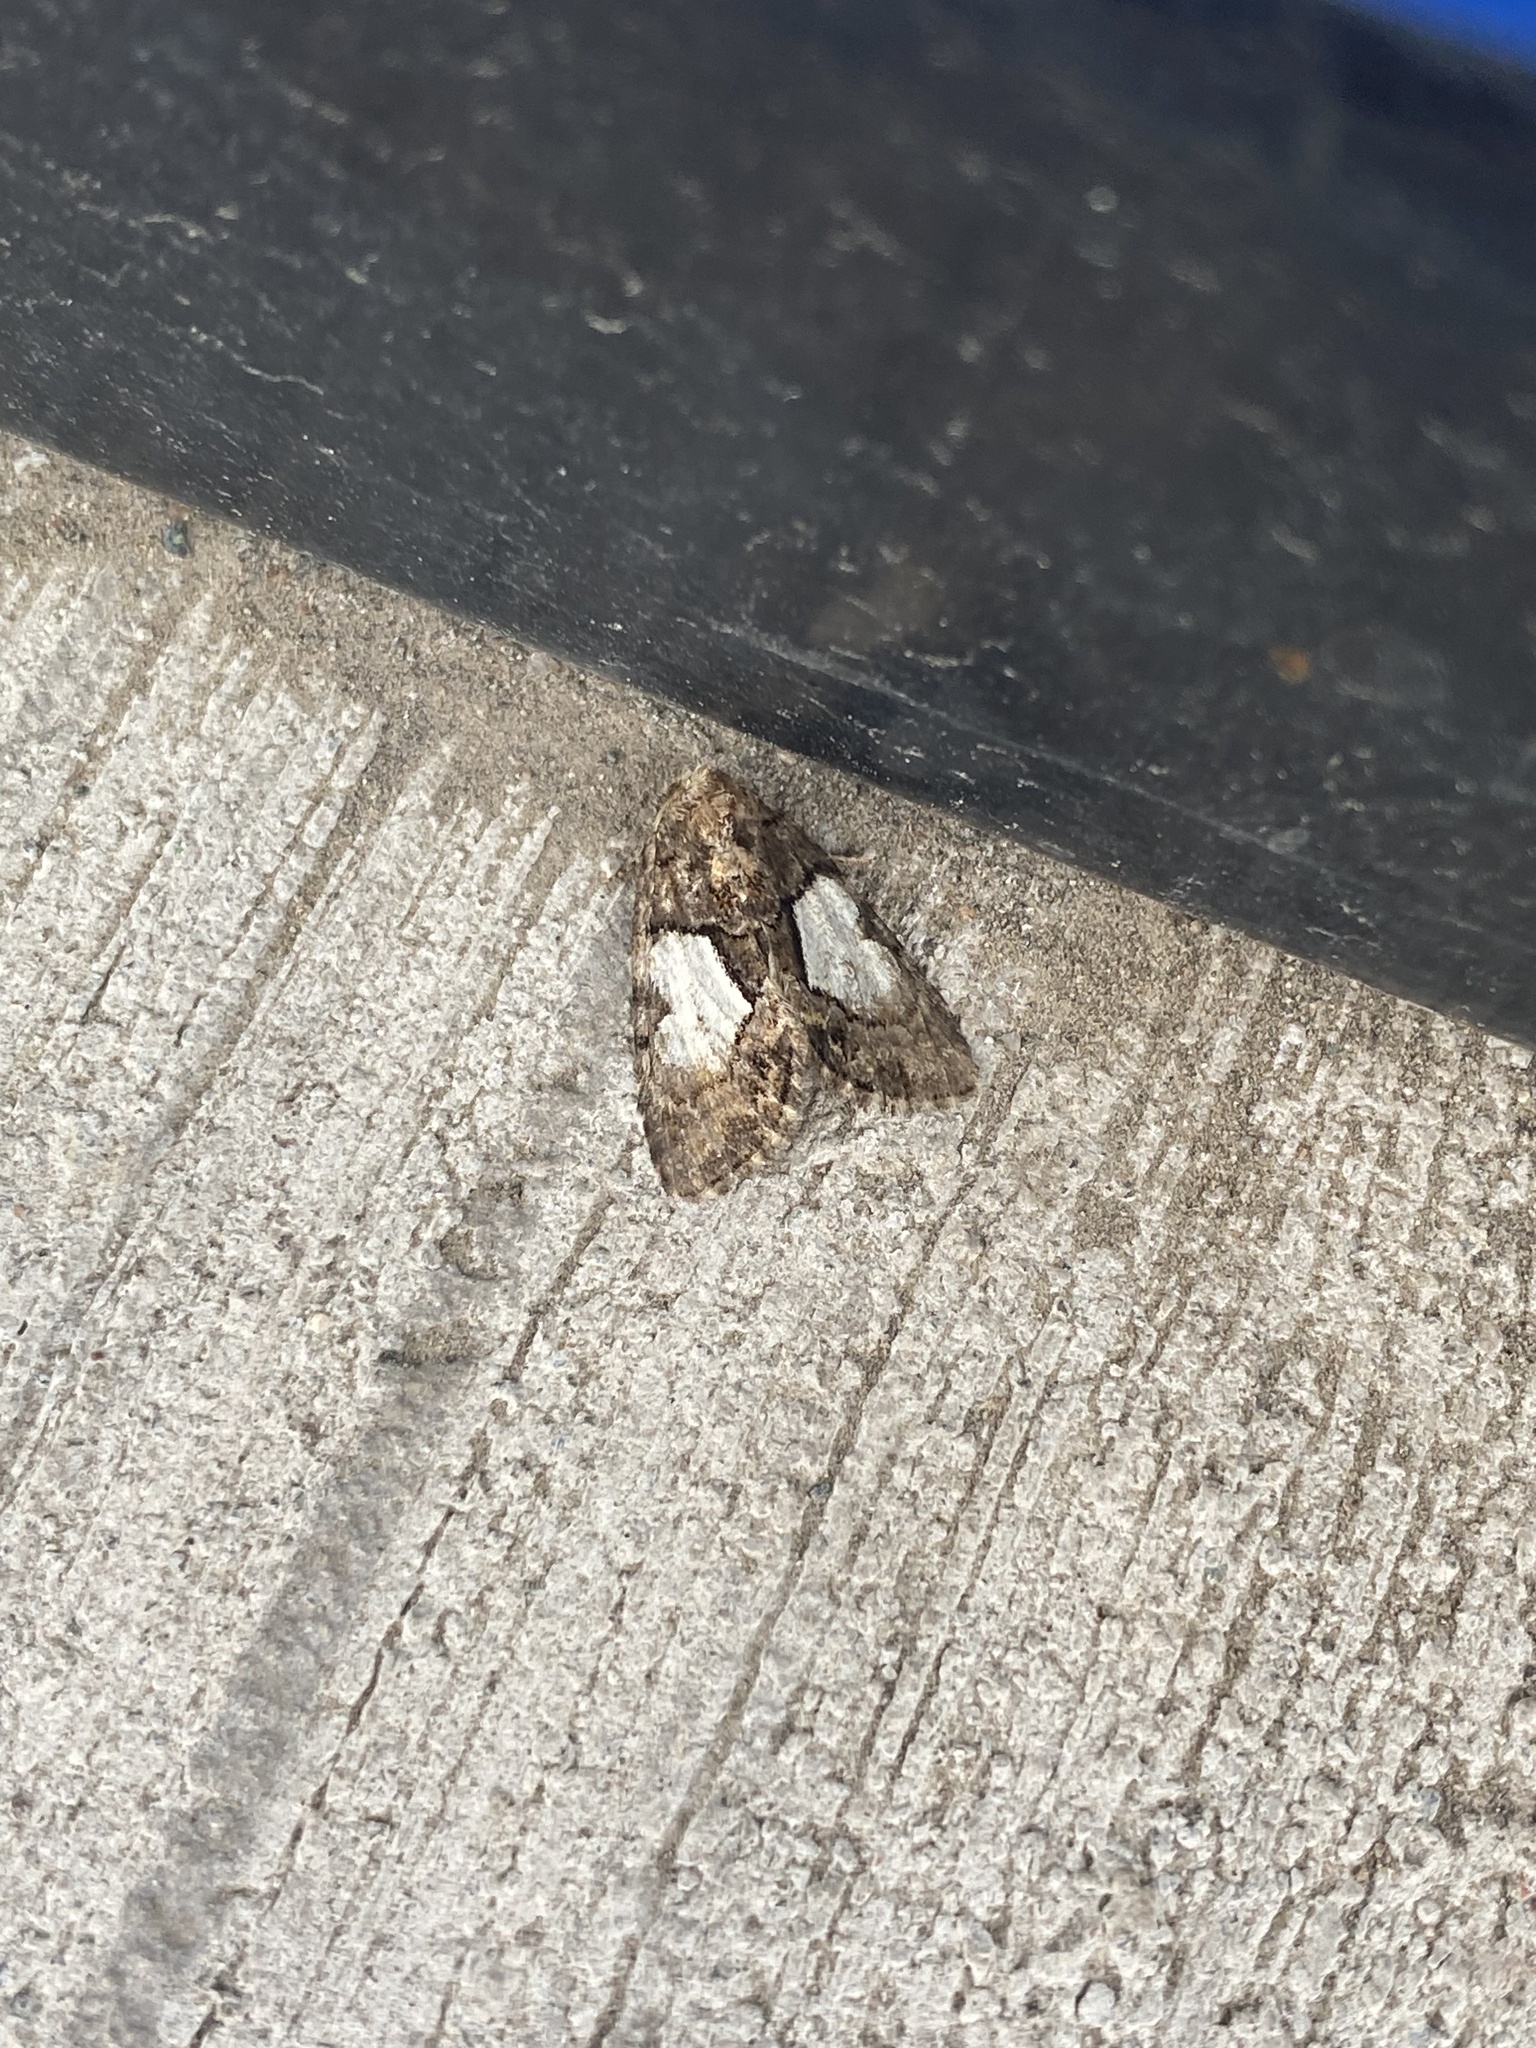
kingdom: Animalia
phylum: Arthropoda
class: Insecta
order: Lepidoptera
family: Noctuidae
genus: Chytonix
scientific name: Chytonix palliatricula
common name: Cloaked marvel
